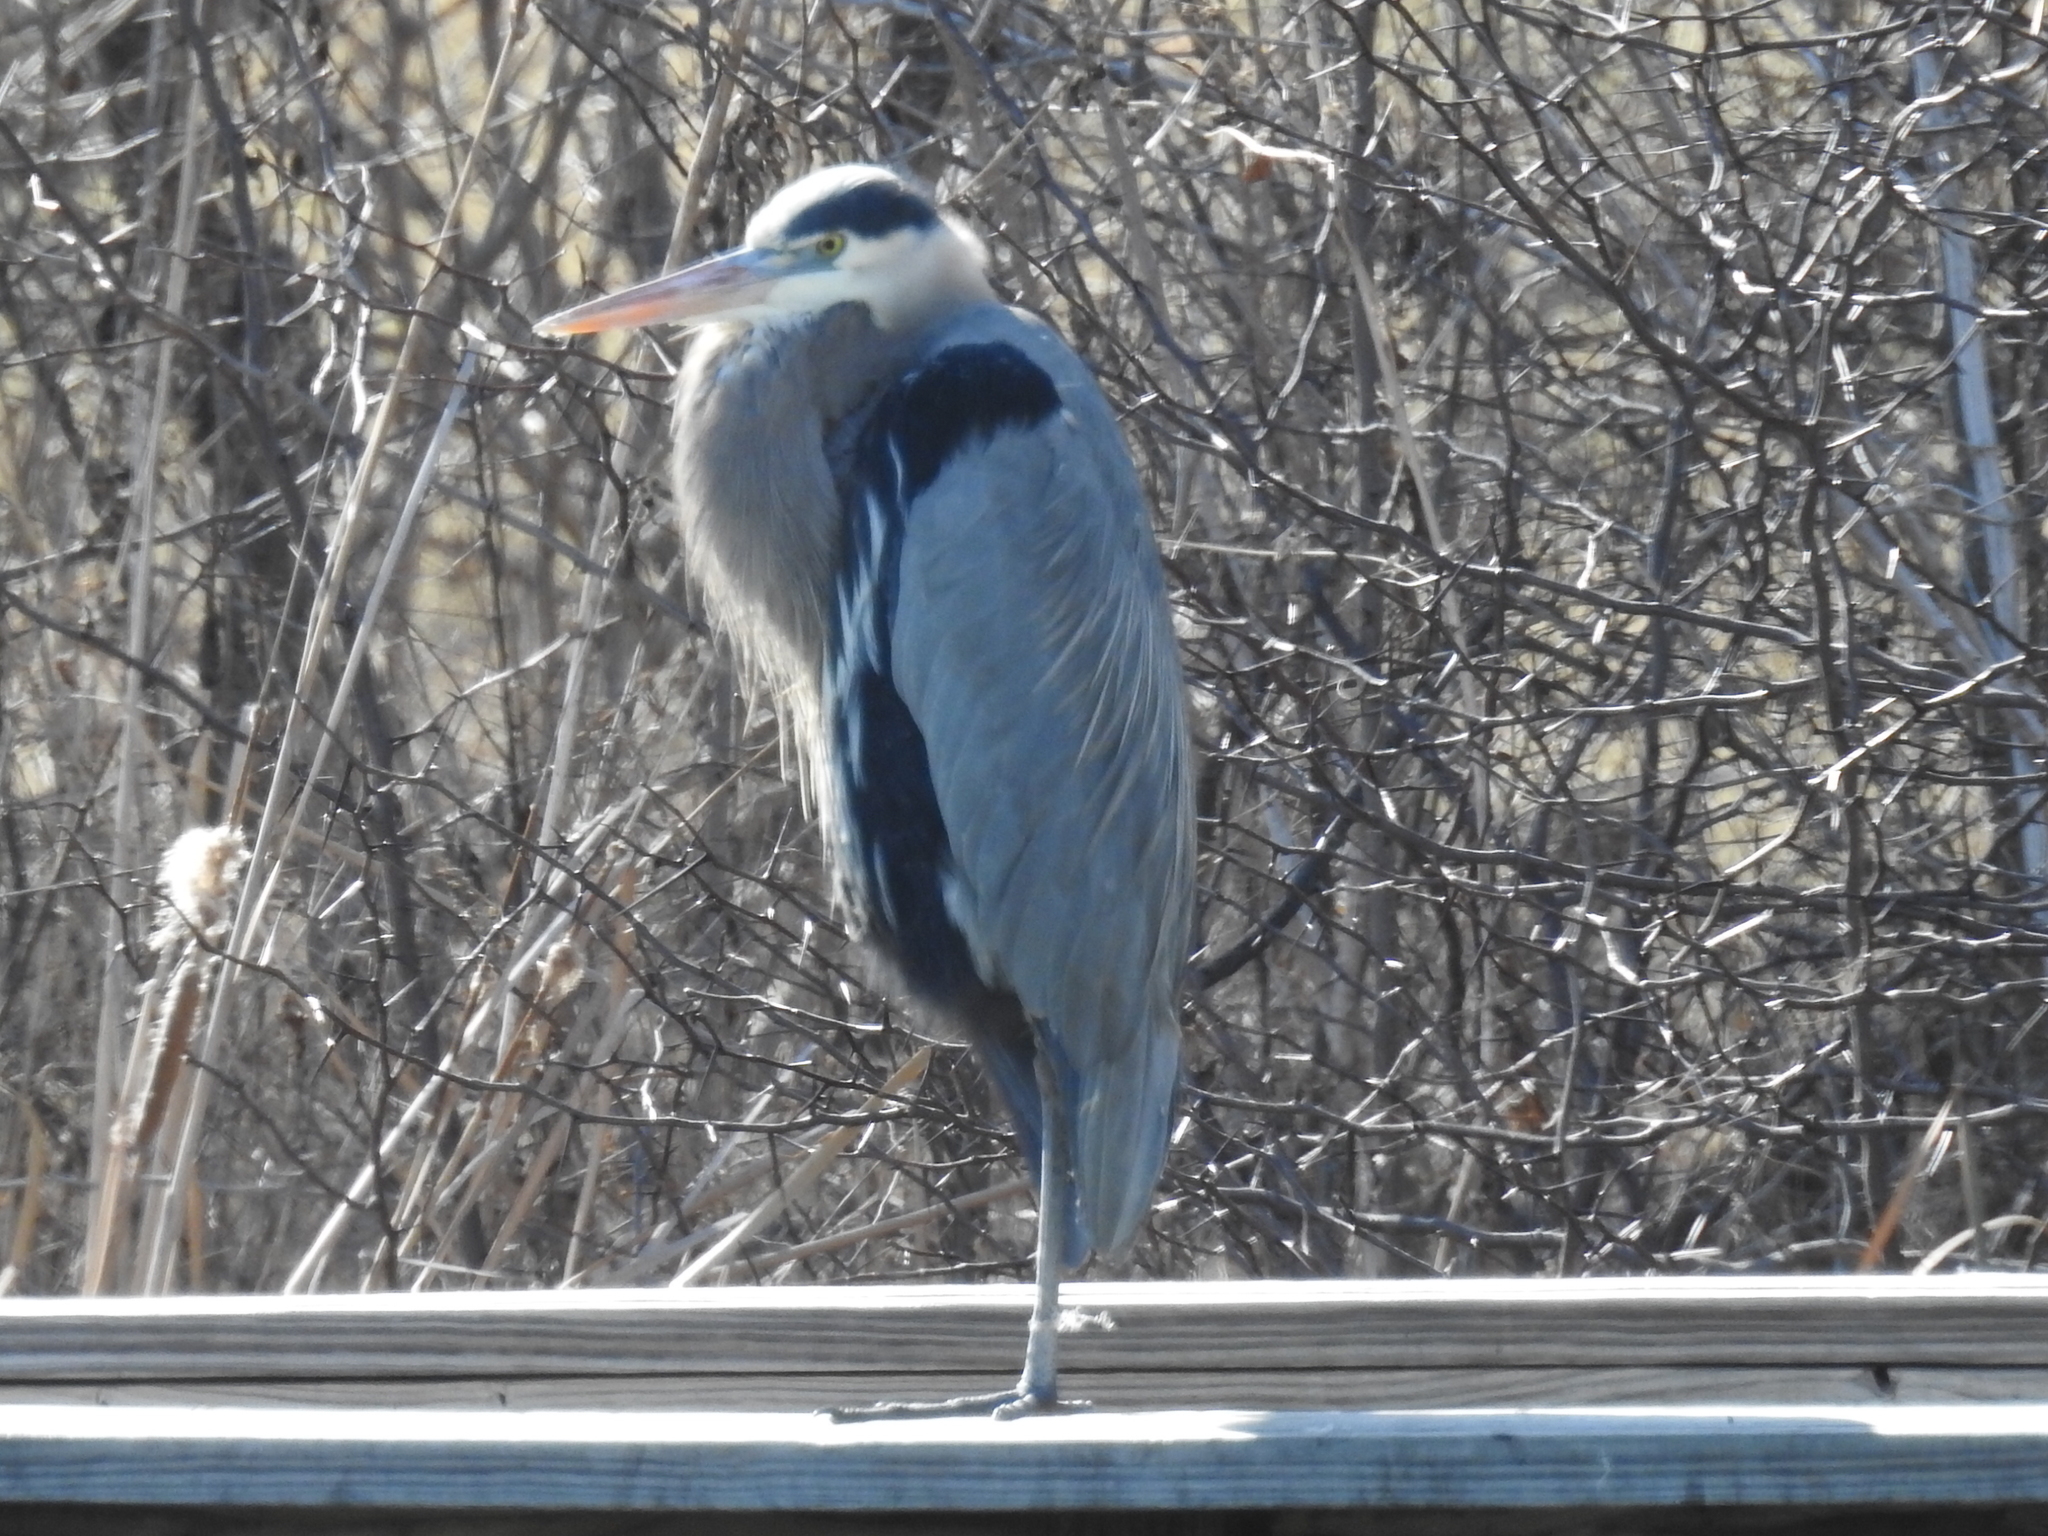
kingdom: Animalia
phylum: Chordata
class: Aves
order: Pelecaniformes
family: Ardeidae
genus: Ardea
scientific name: Ardea herodias
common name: Great blue heron
